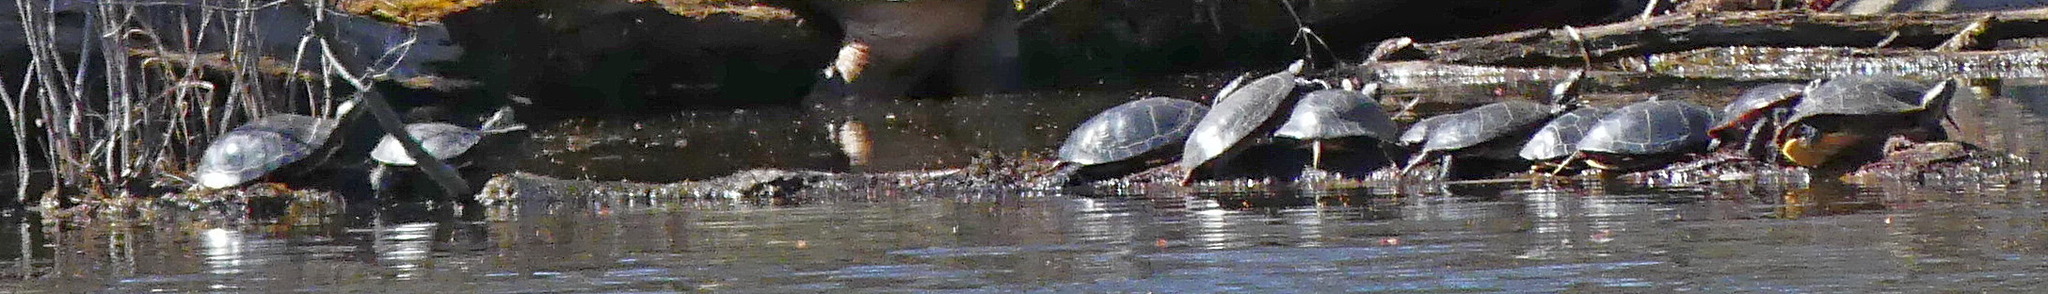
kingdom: Animalia
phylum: Chordata
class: Testudines
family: Emydidae
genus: Chrysemys
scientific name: Chrysemys picta
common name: Painted turtle
